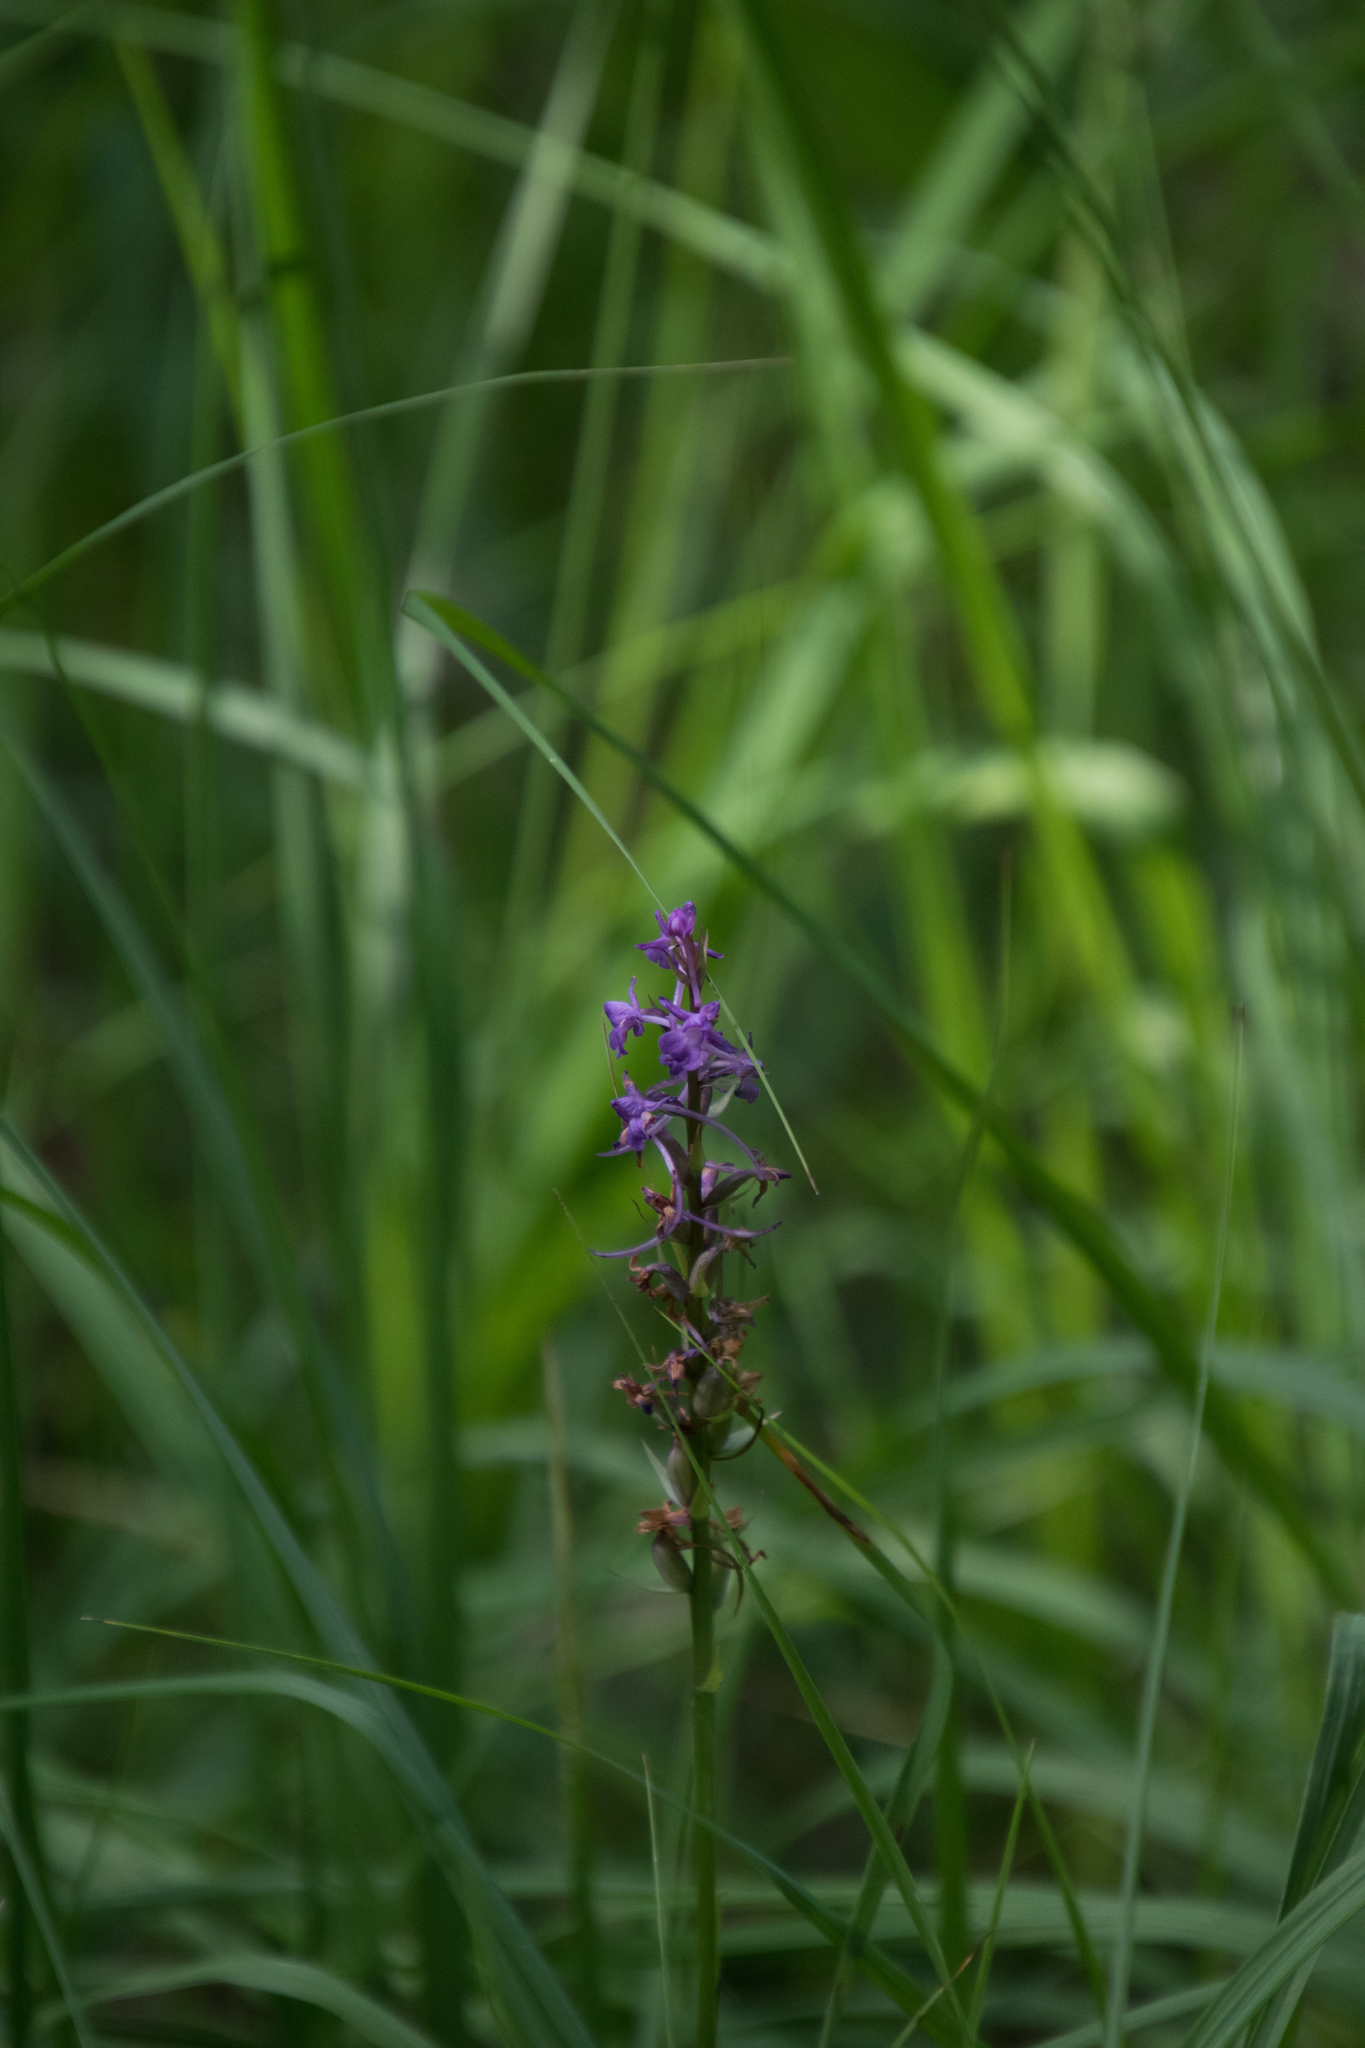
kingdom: Plantae
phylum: Tracheophyta
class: Liliopsida
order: Asparagales
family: Orchidaceae
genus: Gymnadenia
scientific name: Gymnadenia conopsea
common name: Fragrant orchid
